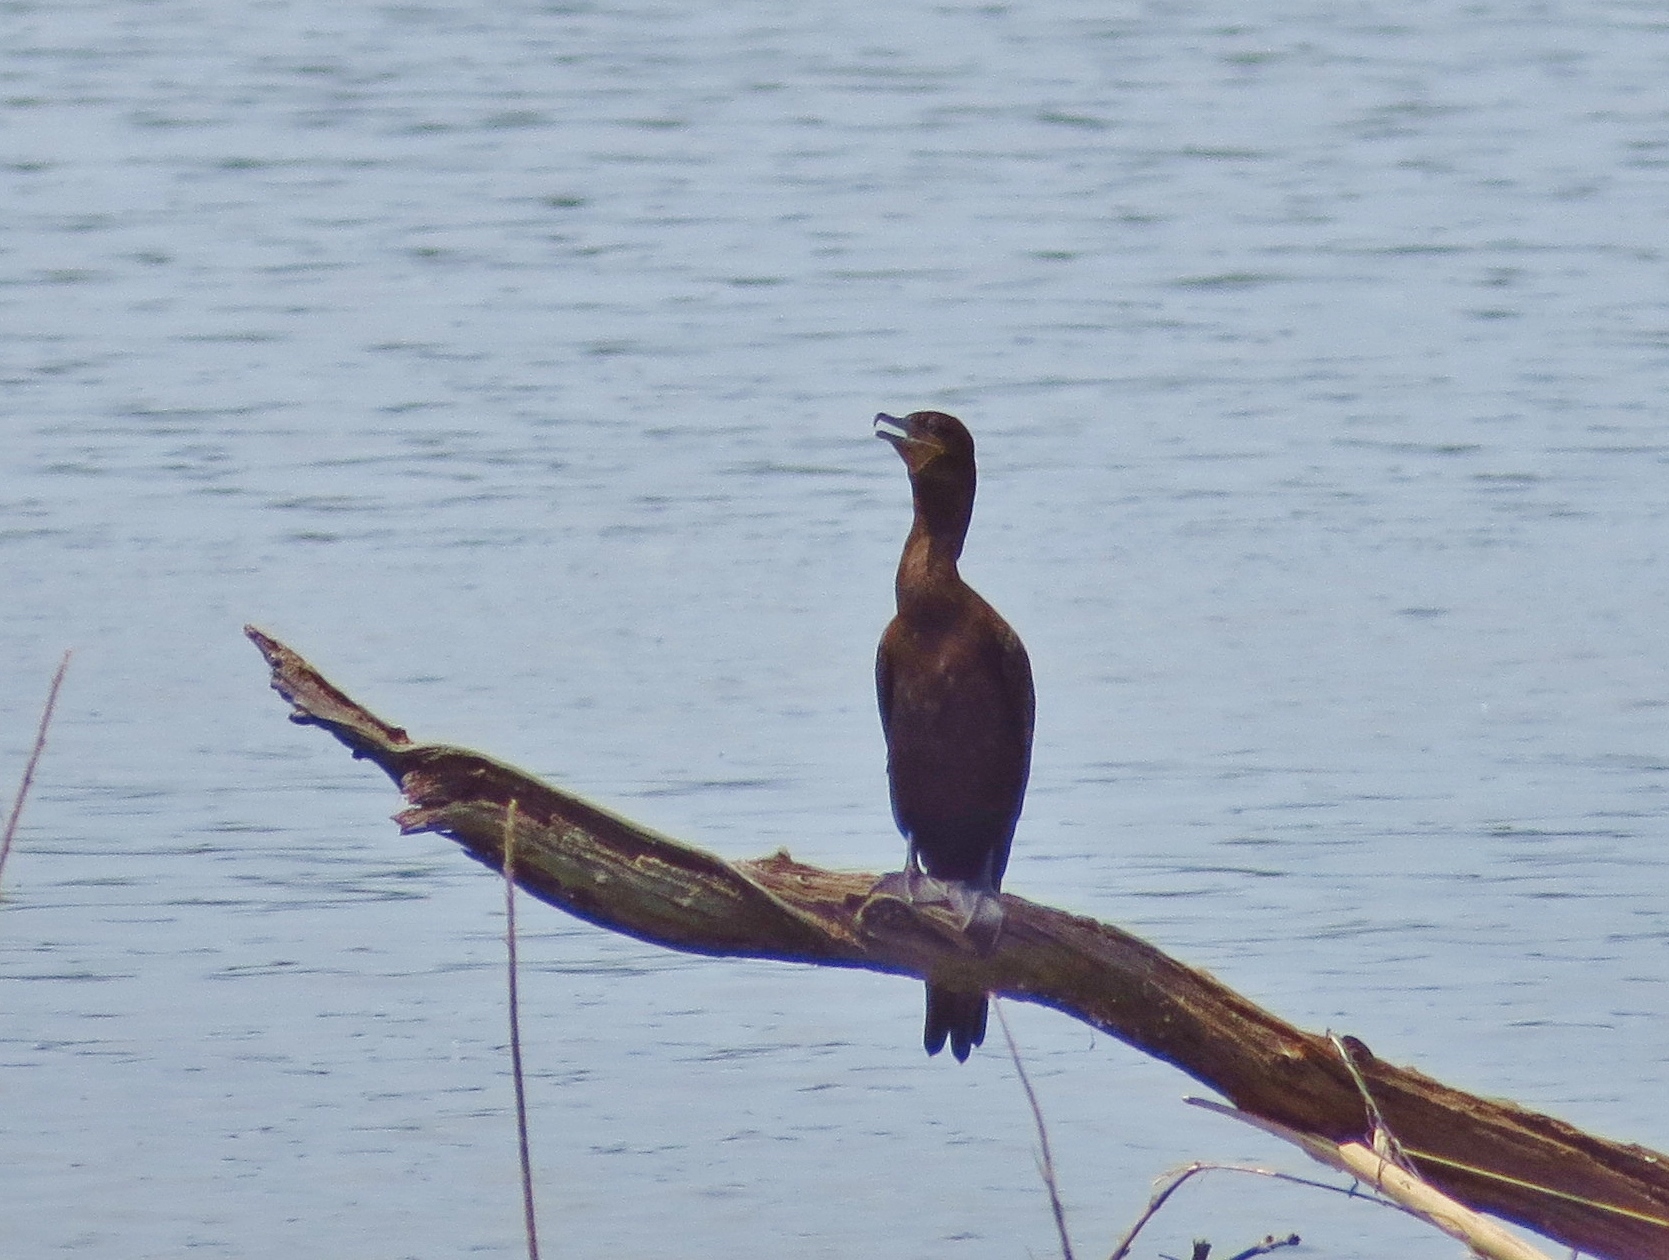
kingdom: Animalia
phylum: Chordata
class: Aves
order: Suliformes
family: Phalacrocoracidae
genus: Phalacrocorax
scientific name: Phalacrocorax brasilianus
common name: Neotropic cormorant
